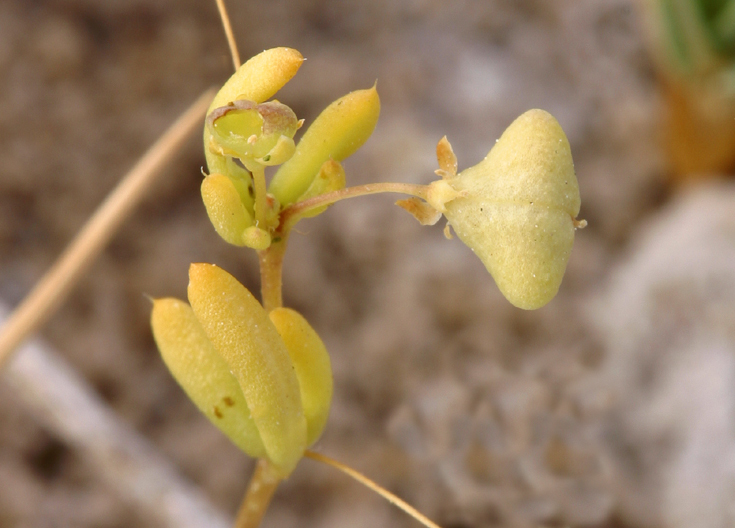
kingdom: Plantae
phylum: Tracheophyta
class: Magnoliopsida
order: Brassicales
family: Cleomaceae
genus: Cleomella
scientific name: Cleomella parviflora
